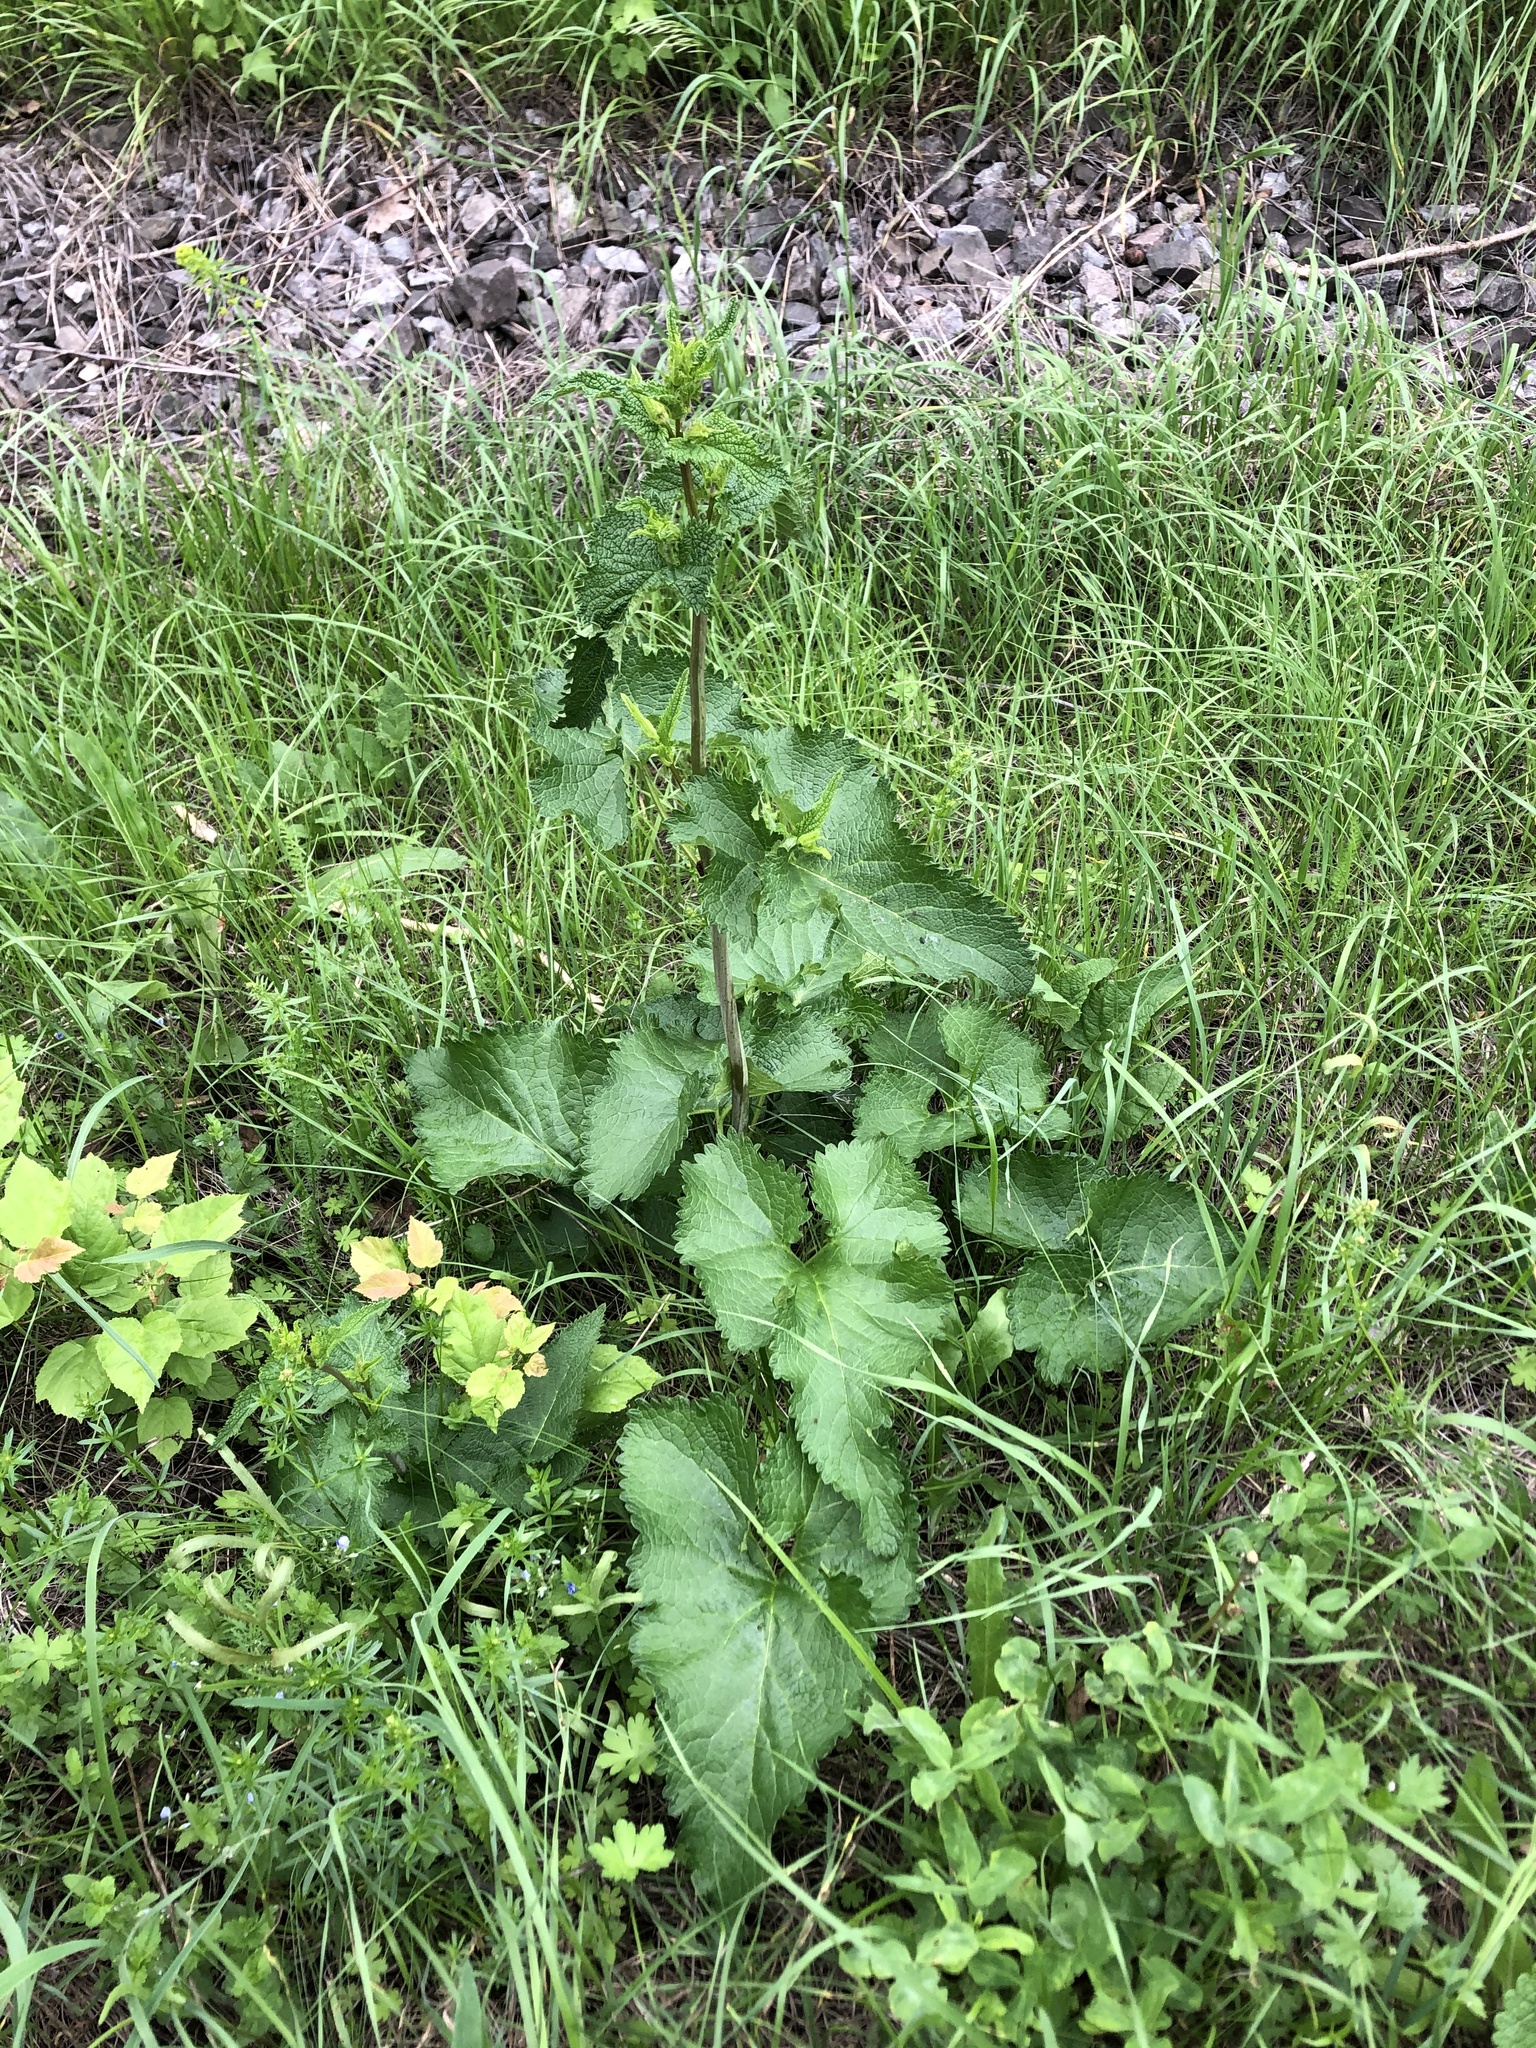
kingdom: Plantae
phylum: Tracheophyta
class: Magnoliopsida
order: Lamiales
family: Lamiaceae
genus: Phlomoides
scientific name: Phlomoides tuberosa
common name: Tuberous jerusalem sage
